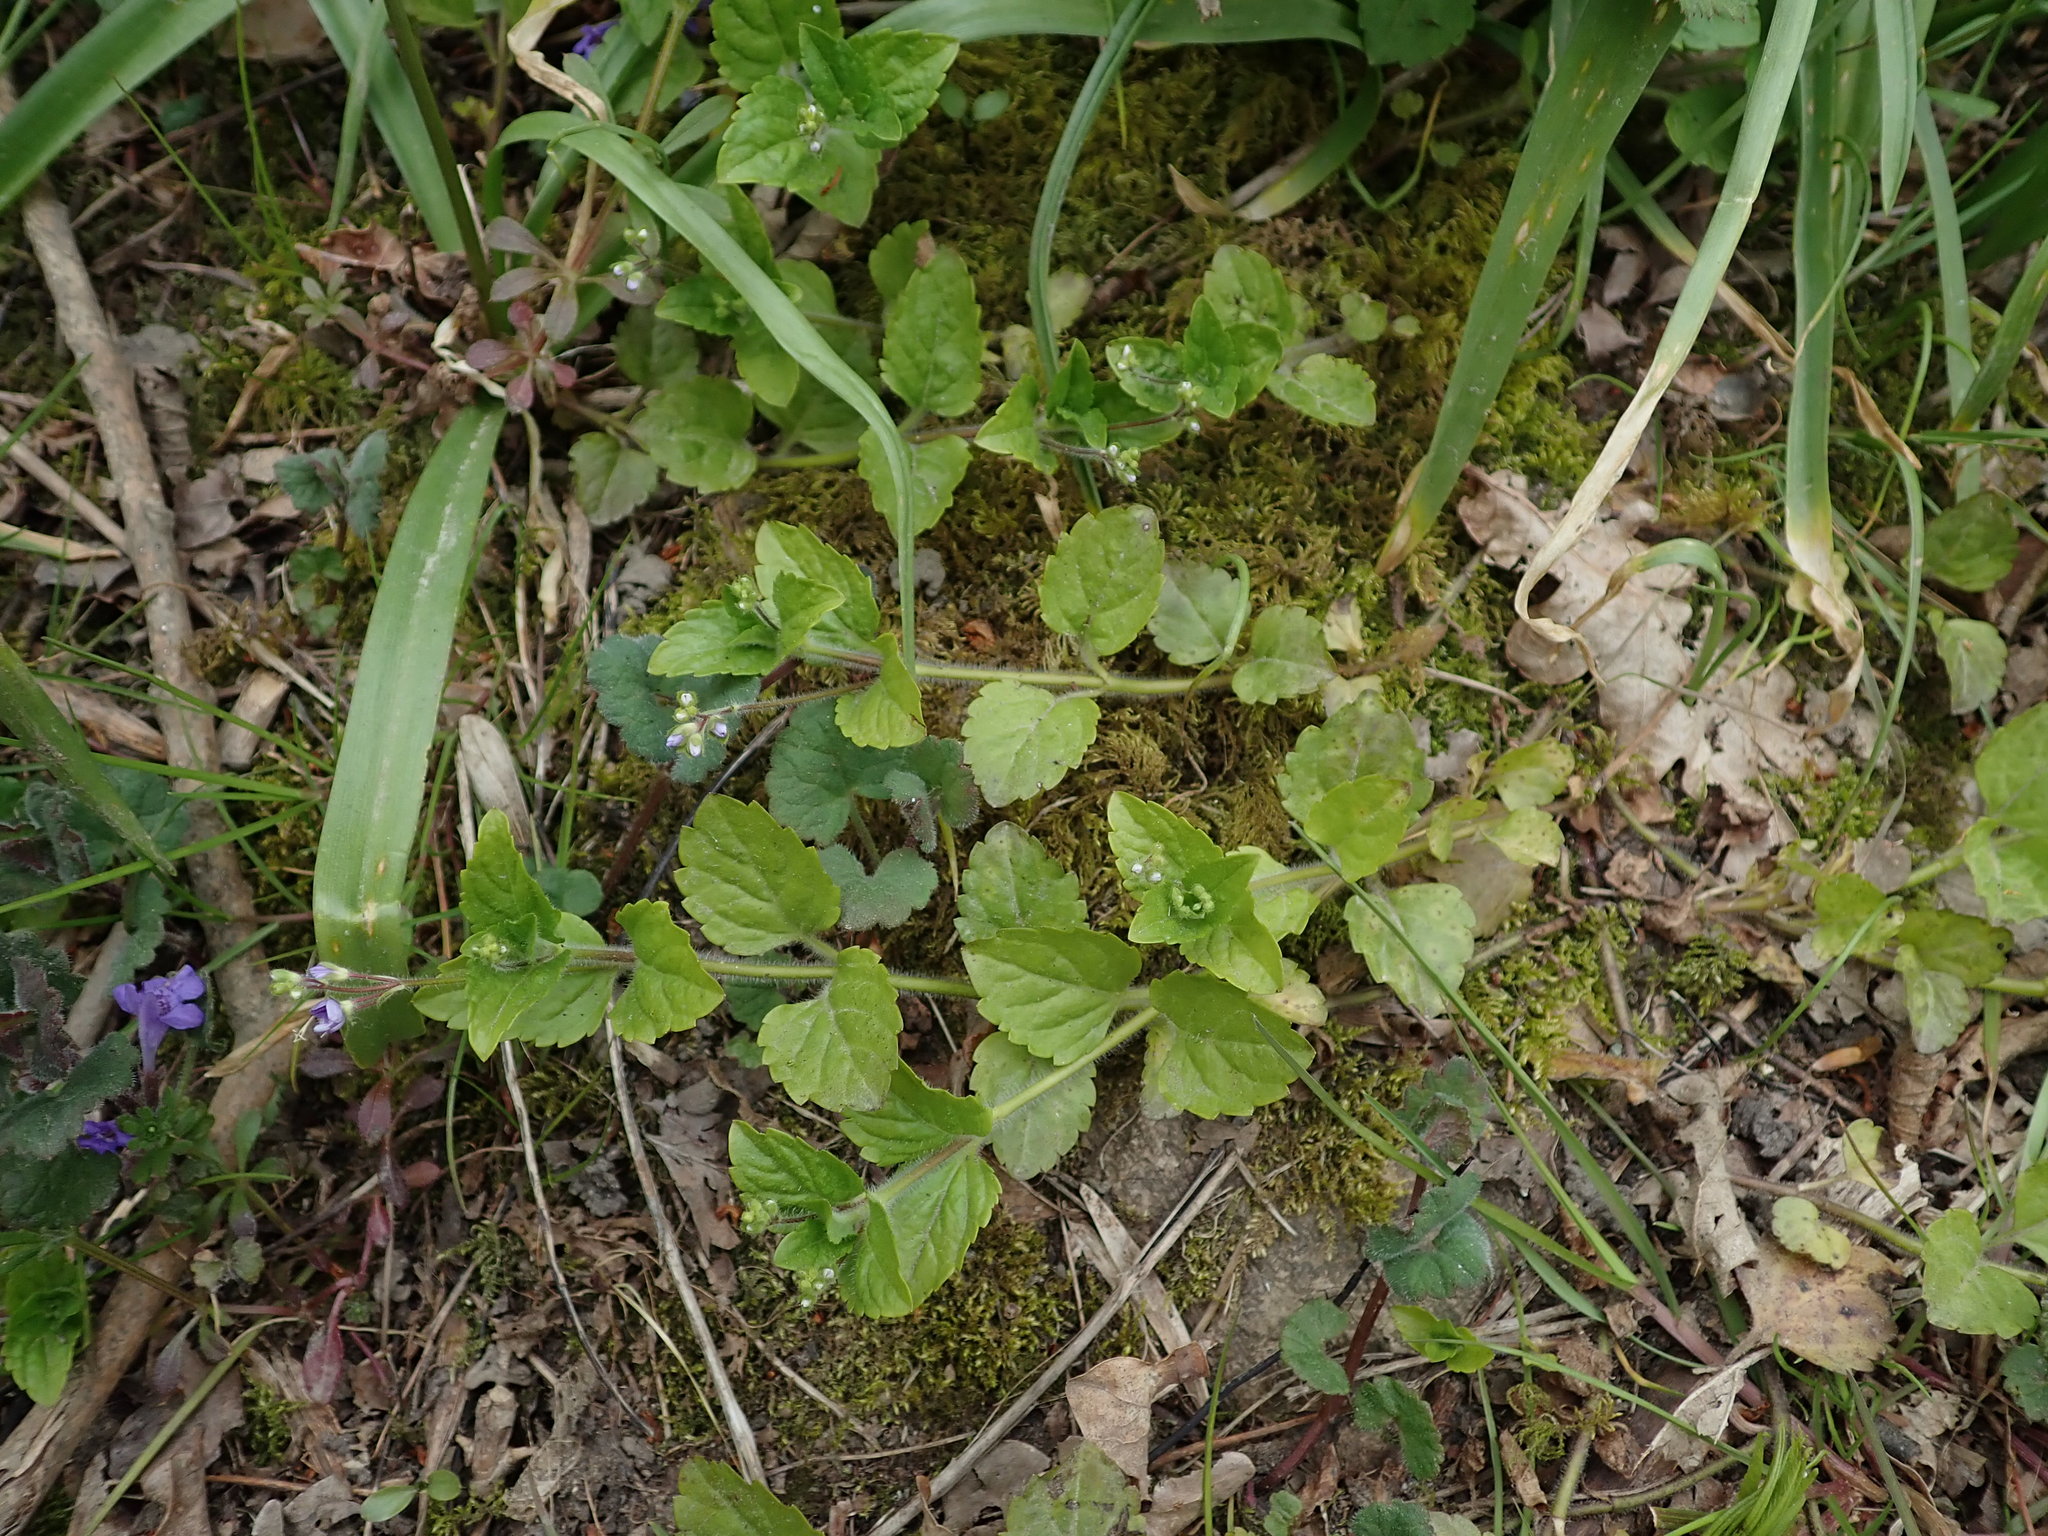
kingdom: Plantae
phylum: Tracheophyta
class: Magnoliopsida
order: Lamiales
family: Plantaginaceae
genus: Veronica
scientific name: Veronica montana
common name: Wood speedwell
